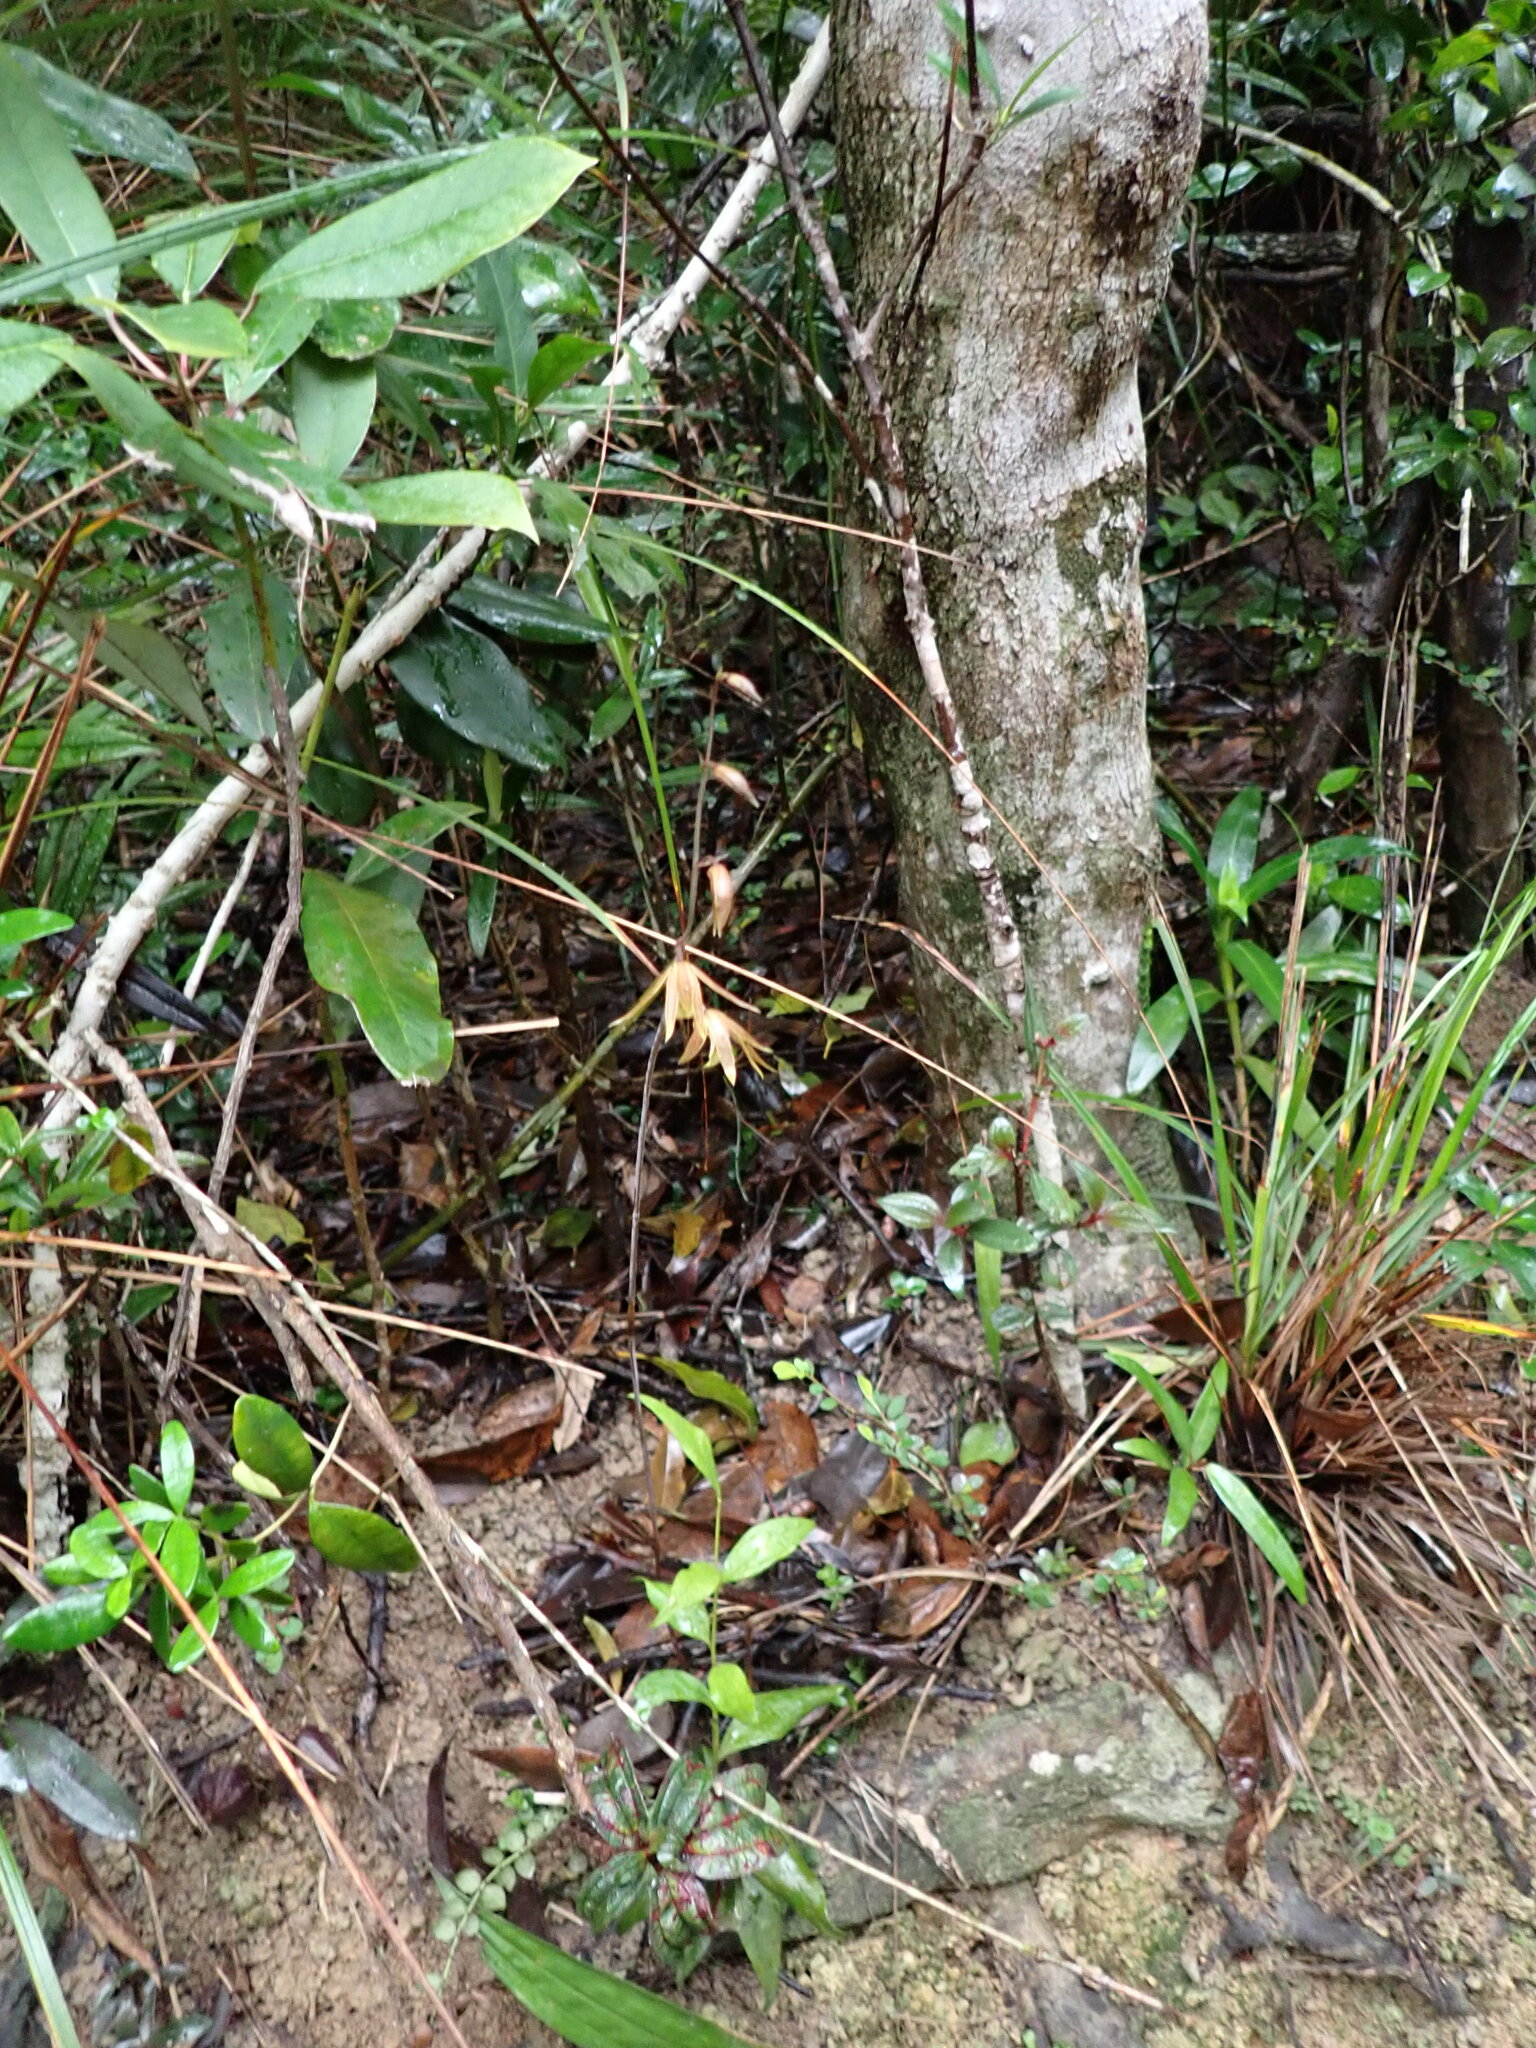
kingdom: Plantae
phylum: Tracheophyta
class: Liliopsida
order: Asparagales
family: Orchidaceae
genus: Ania
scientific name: Ania hongkongensis
